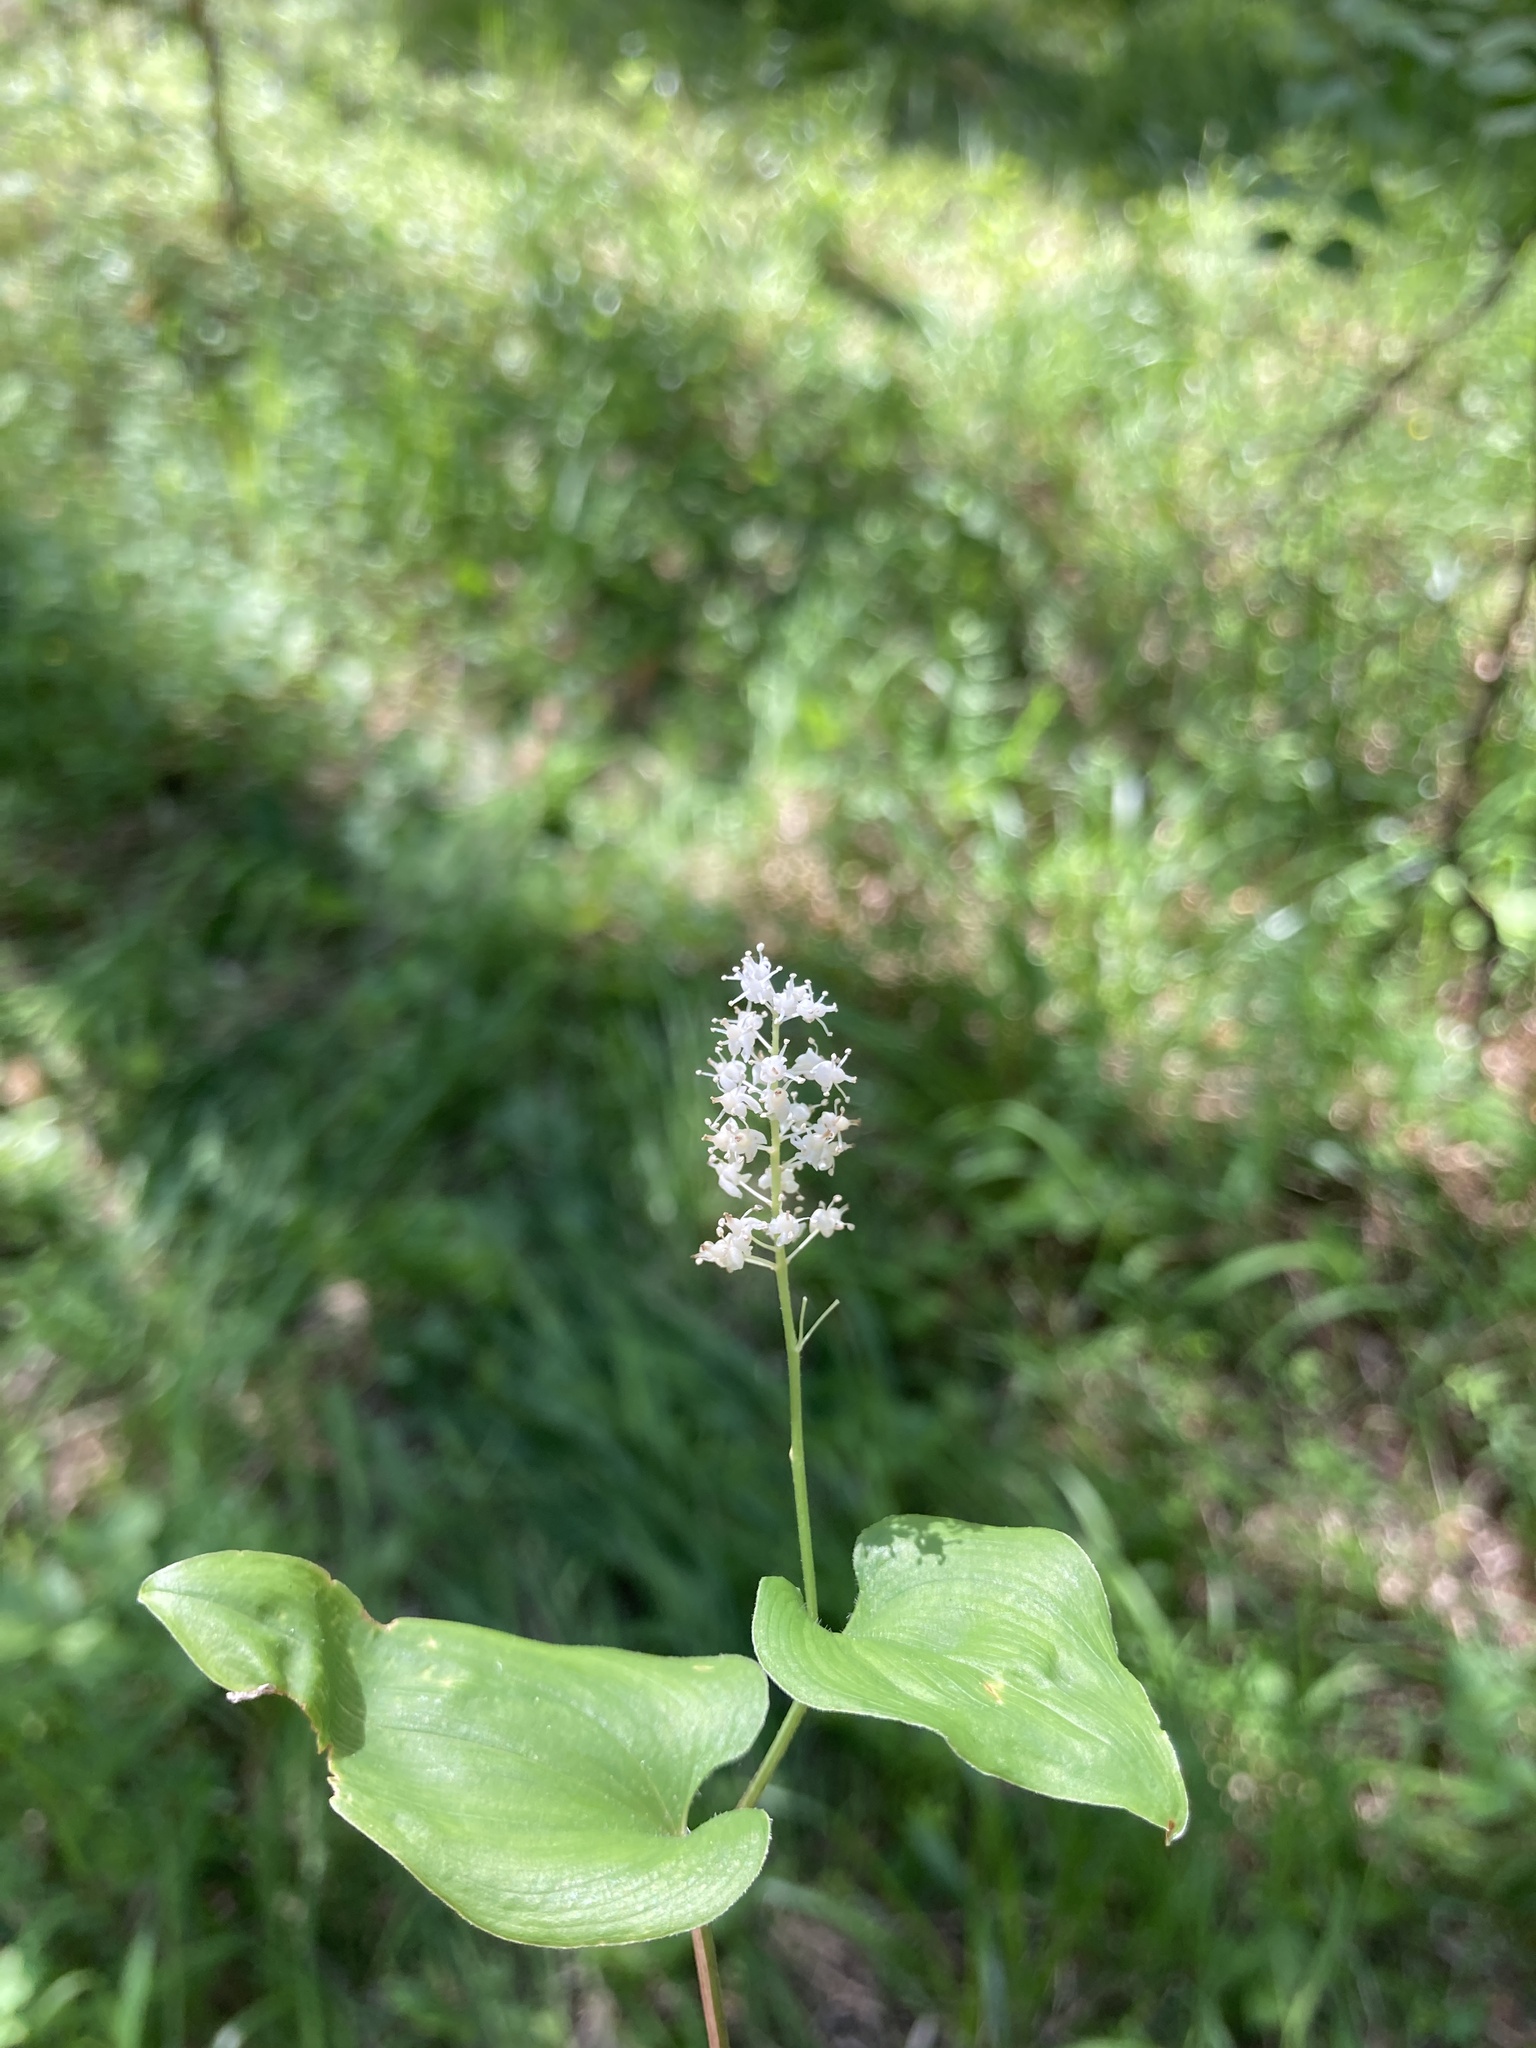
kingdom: Plantae
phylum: Tracheophyta
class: Liliopsida
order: Asparagales
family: Asparagaceae
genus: Maianthemum
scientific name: Maianthemum bifolium
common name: May lily
